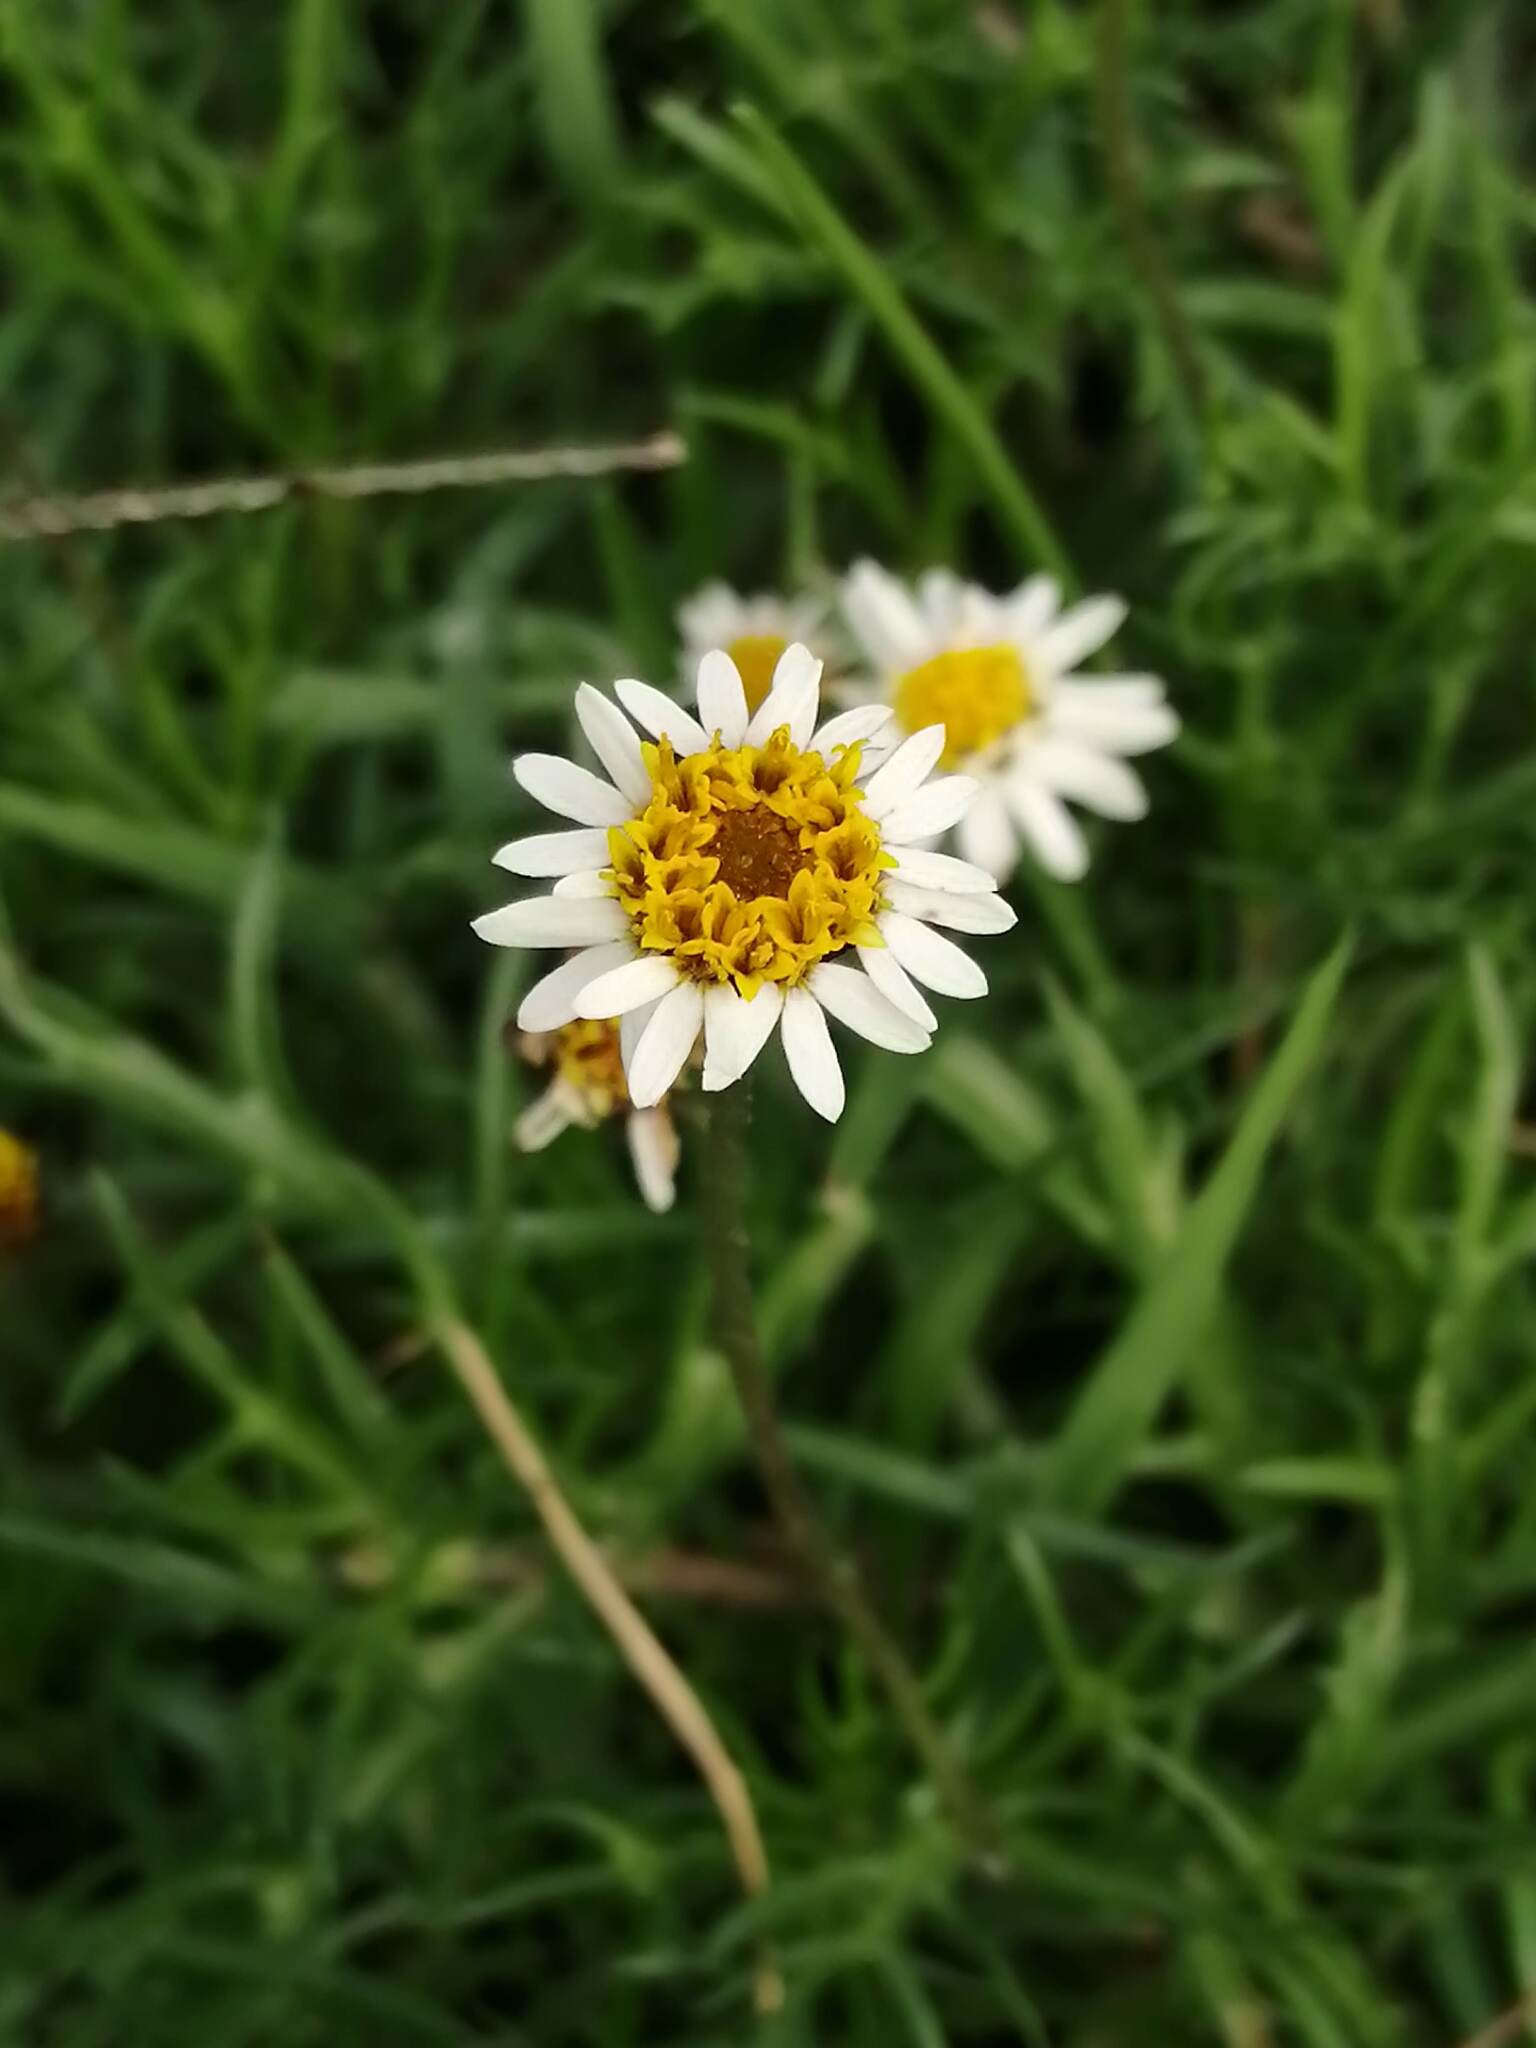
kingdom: Plantae
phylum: Tracheophyta
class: Magnoliopsida
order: Asterales
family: Asteraceae
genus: Tridax
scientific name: Tridax coronopifolia
